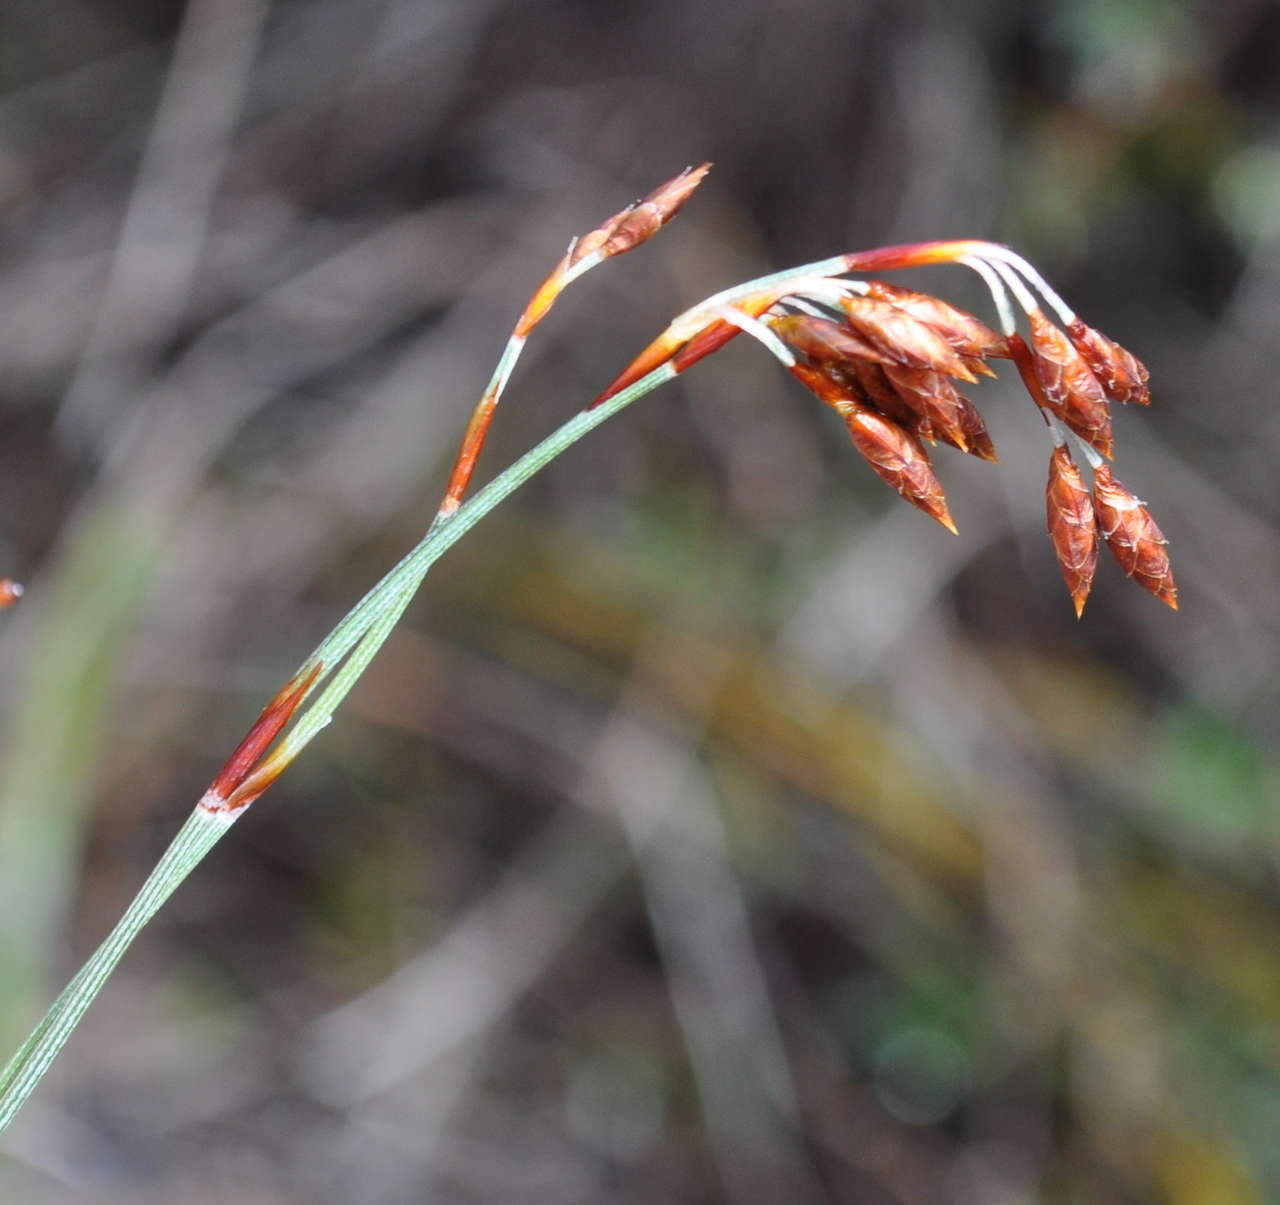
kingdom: Plantae
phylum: Tracheophyta
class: Liliopsida
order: Poales
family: Restionaceae
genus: Hypolaena
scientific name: Hypolaena fastigiata
